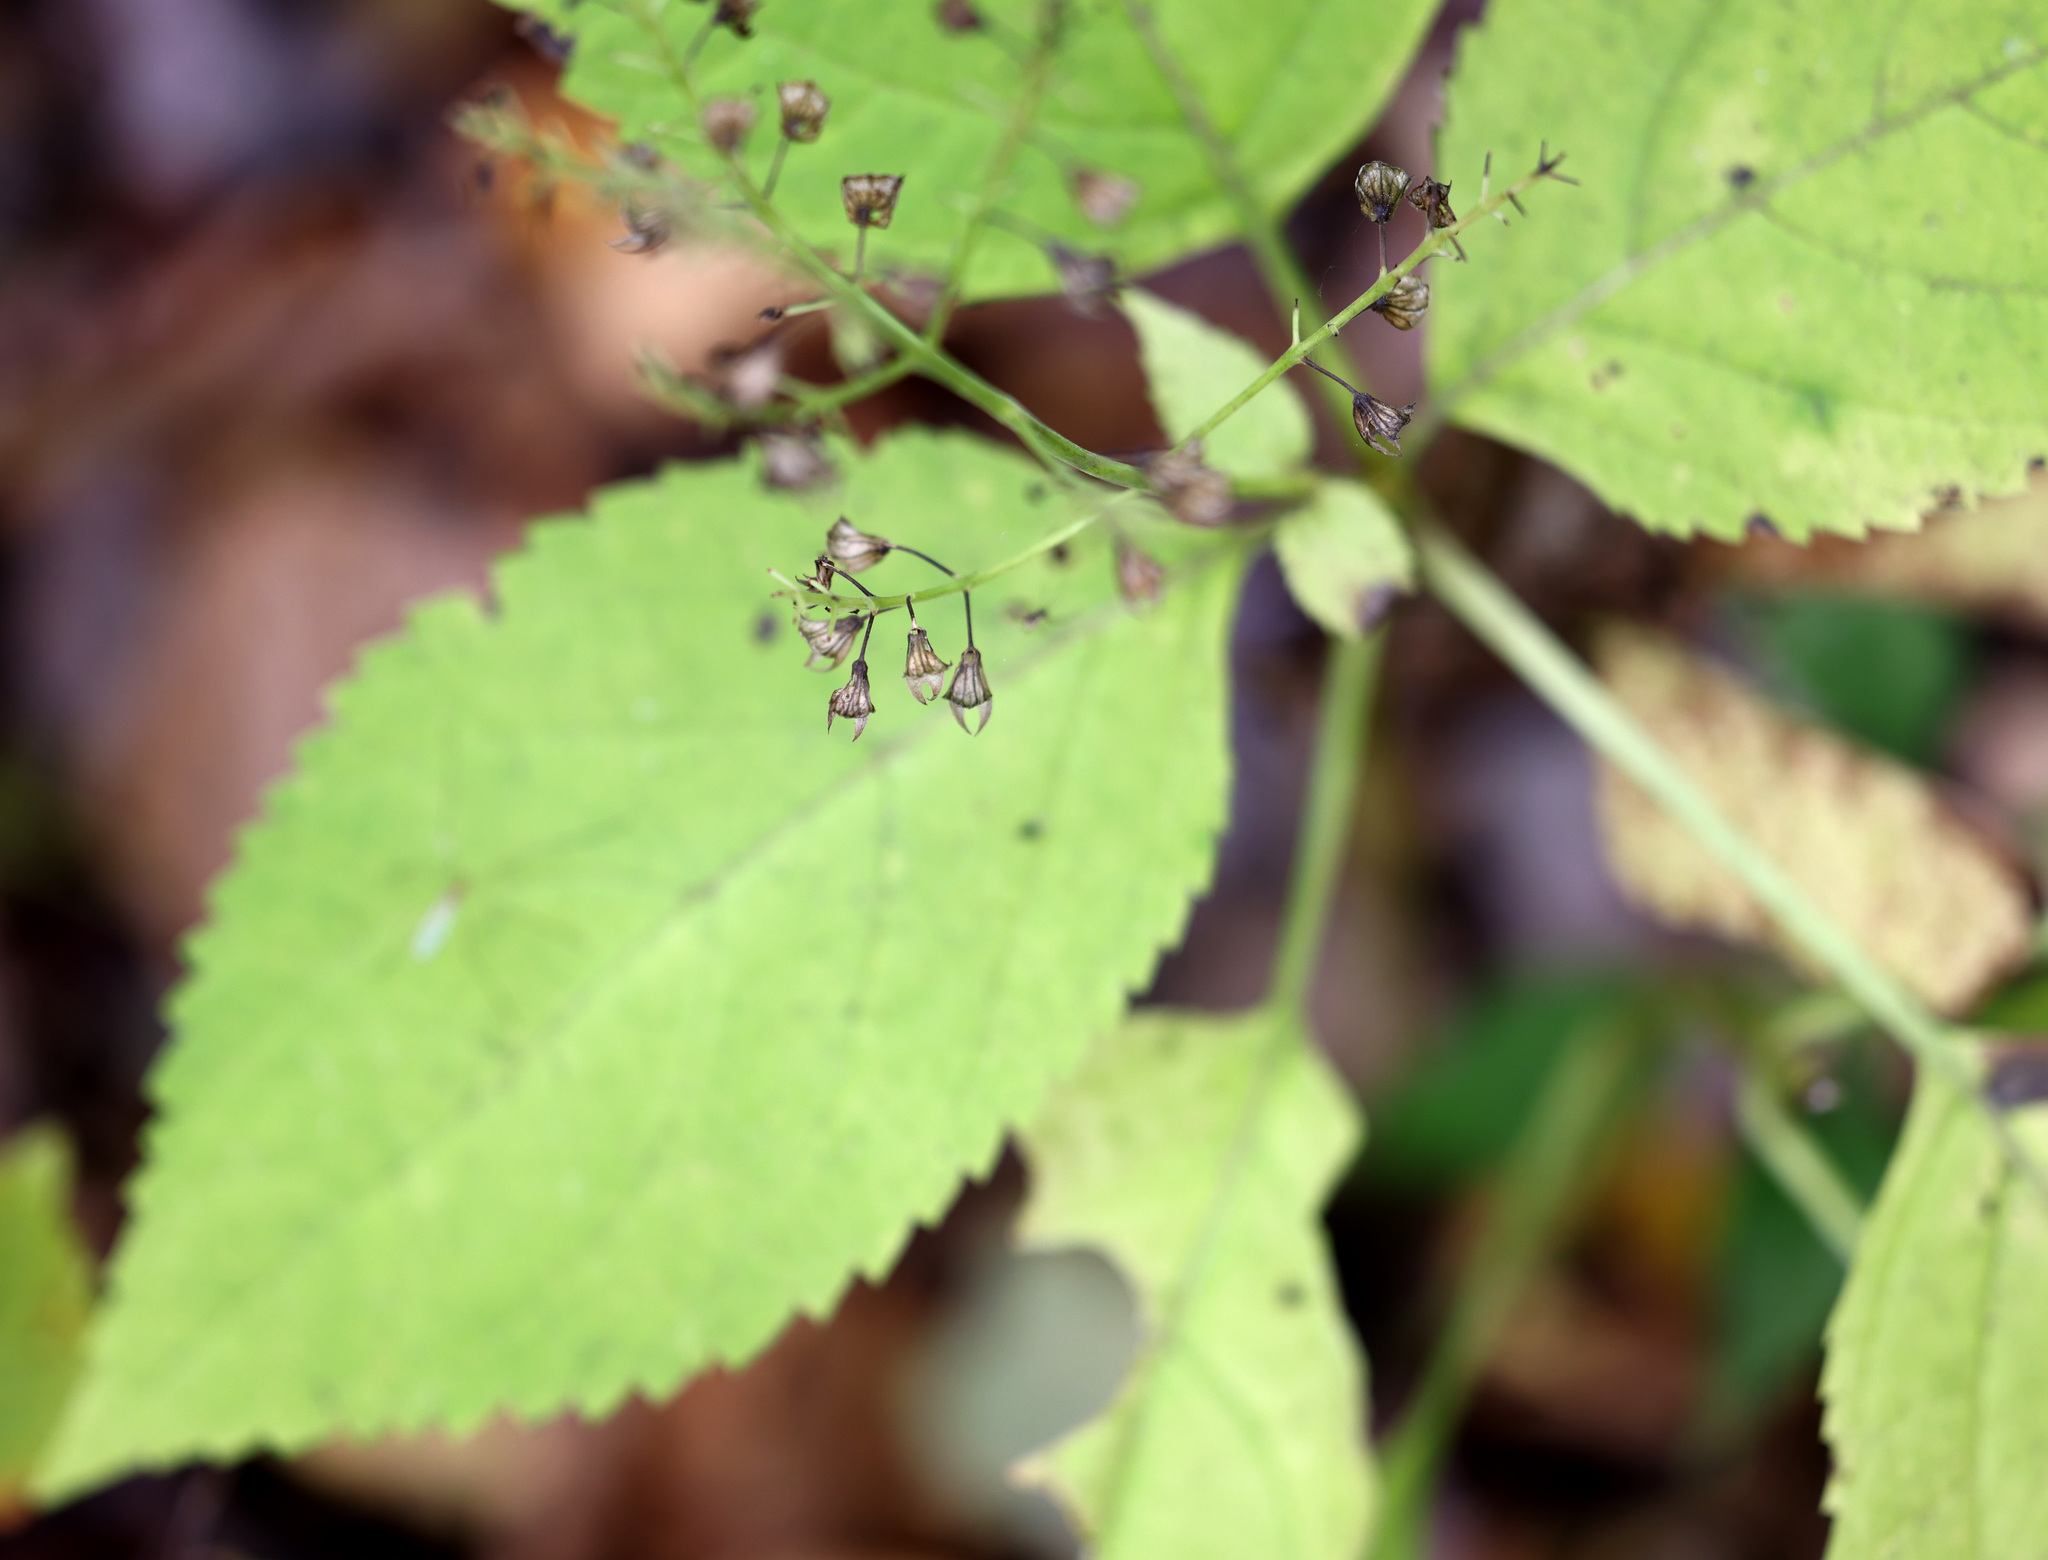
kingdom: Plantae
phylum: Tracheophyta
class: Magnoliopsida
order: Lamiales
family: Lamiaceae
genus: Collinsonia
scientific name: Collinsonia canadensis
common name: Northern horsebalm
